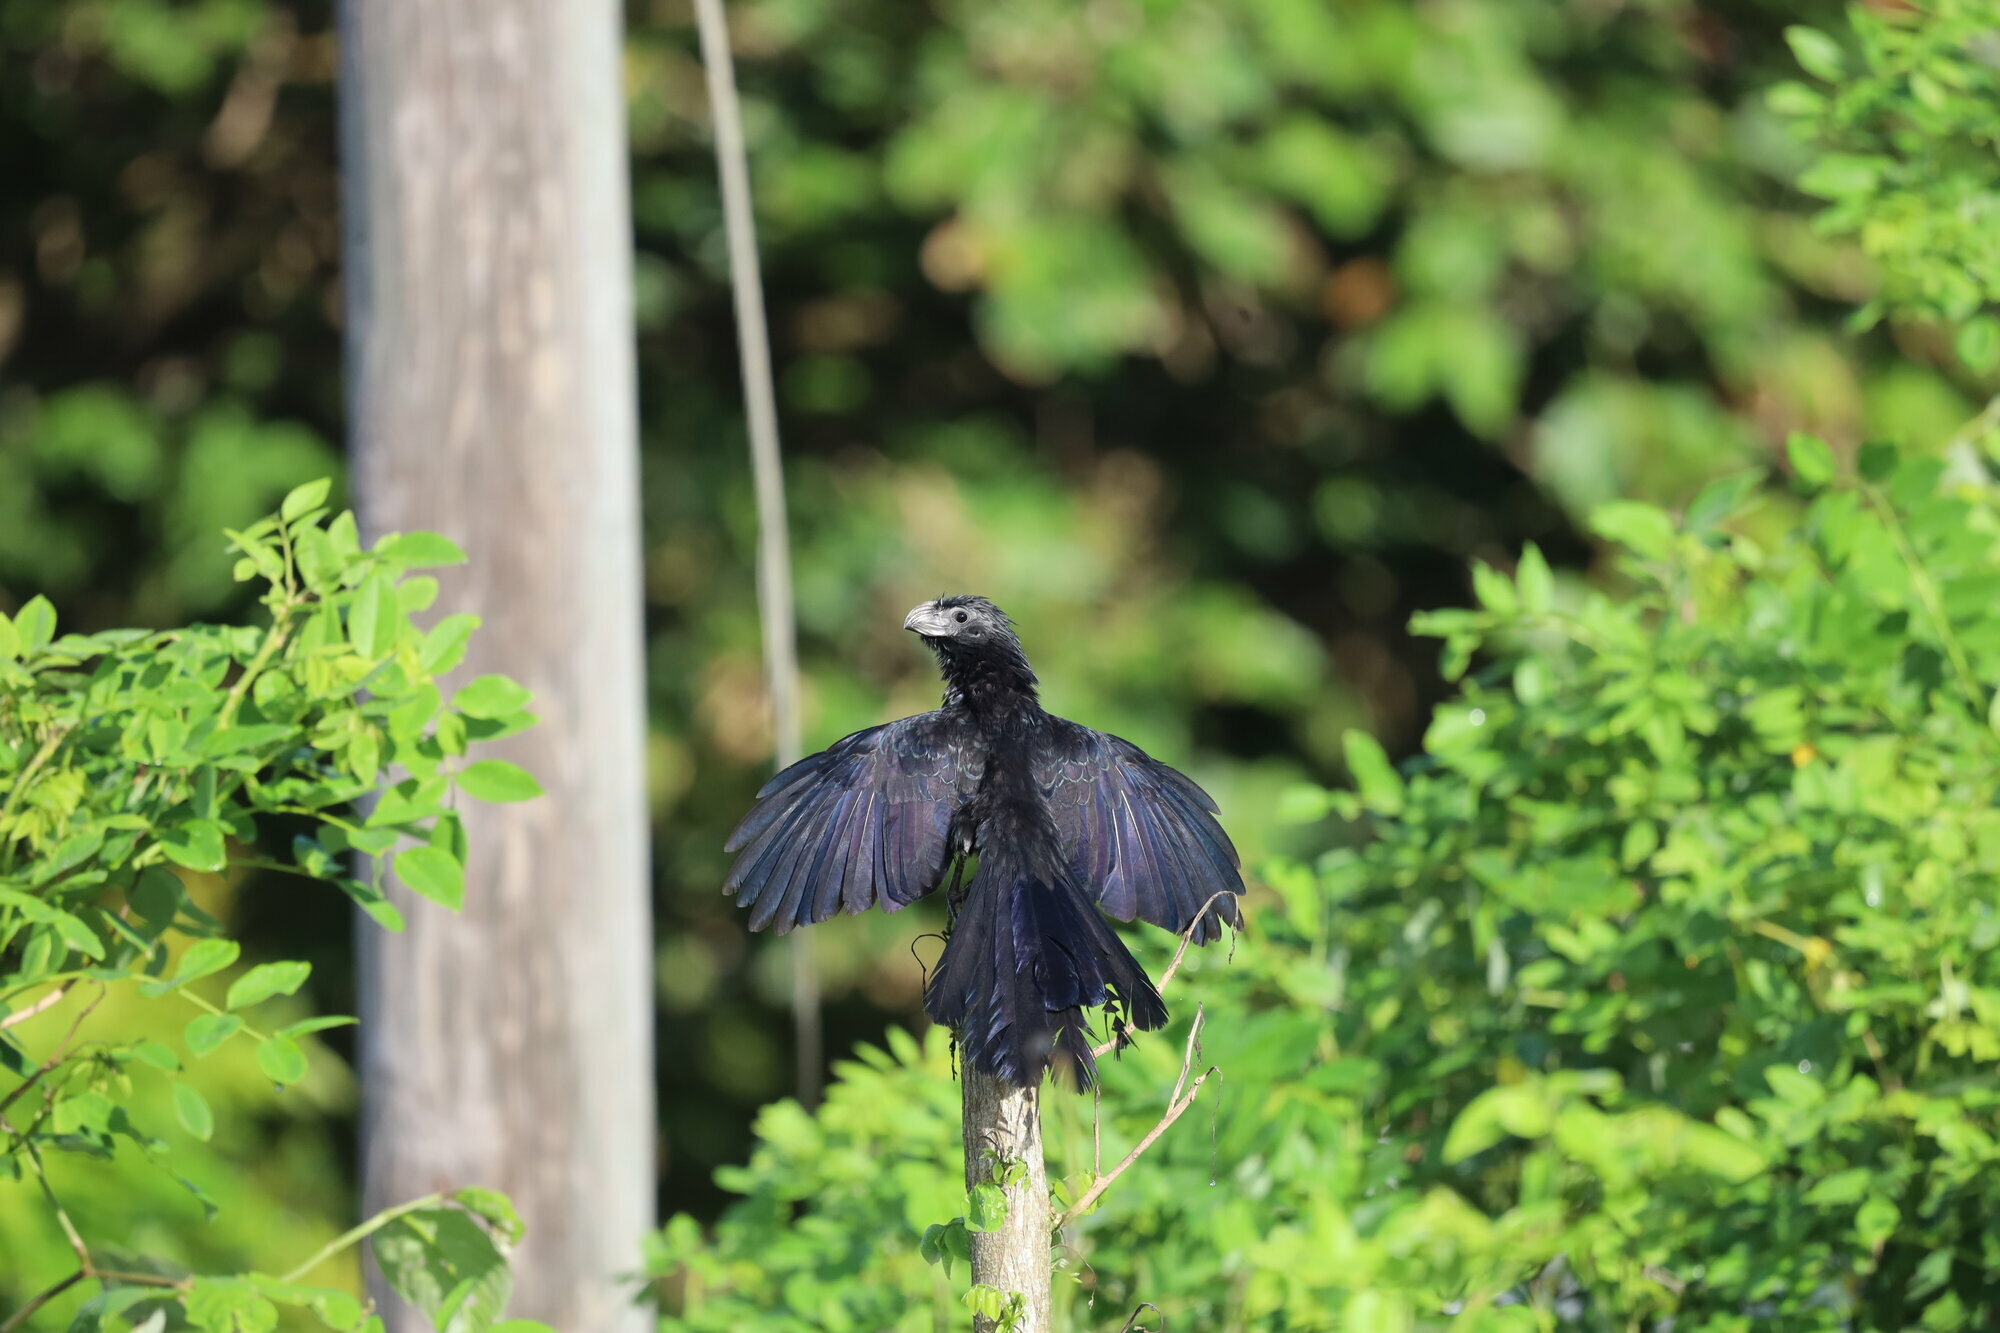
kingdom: Animalia
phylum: Chordata
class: Aves
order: Cuculiformes
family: Cuculidae
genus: Crotophaga
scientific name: Crotophaga sulcirostris
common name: Groove-billed ani
